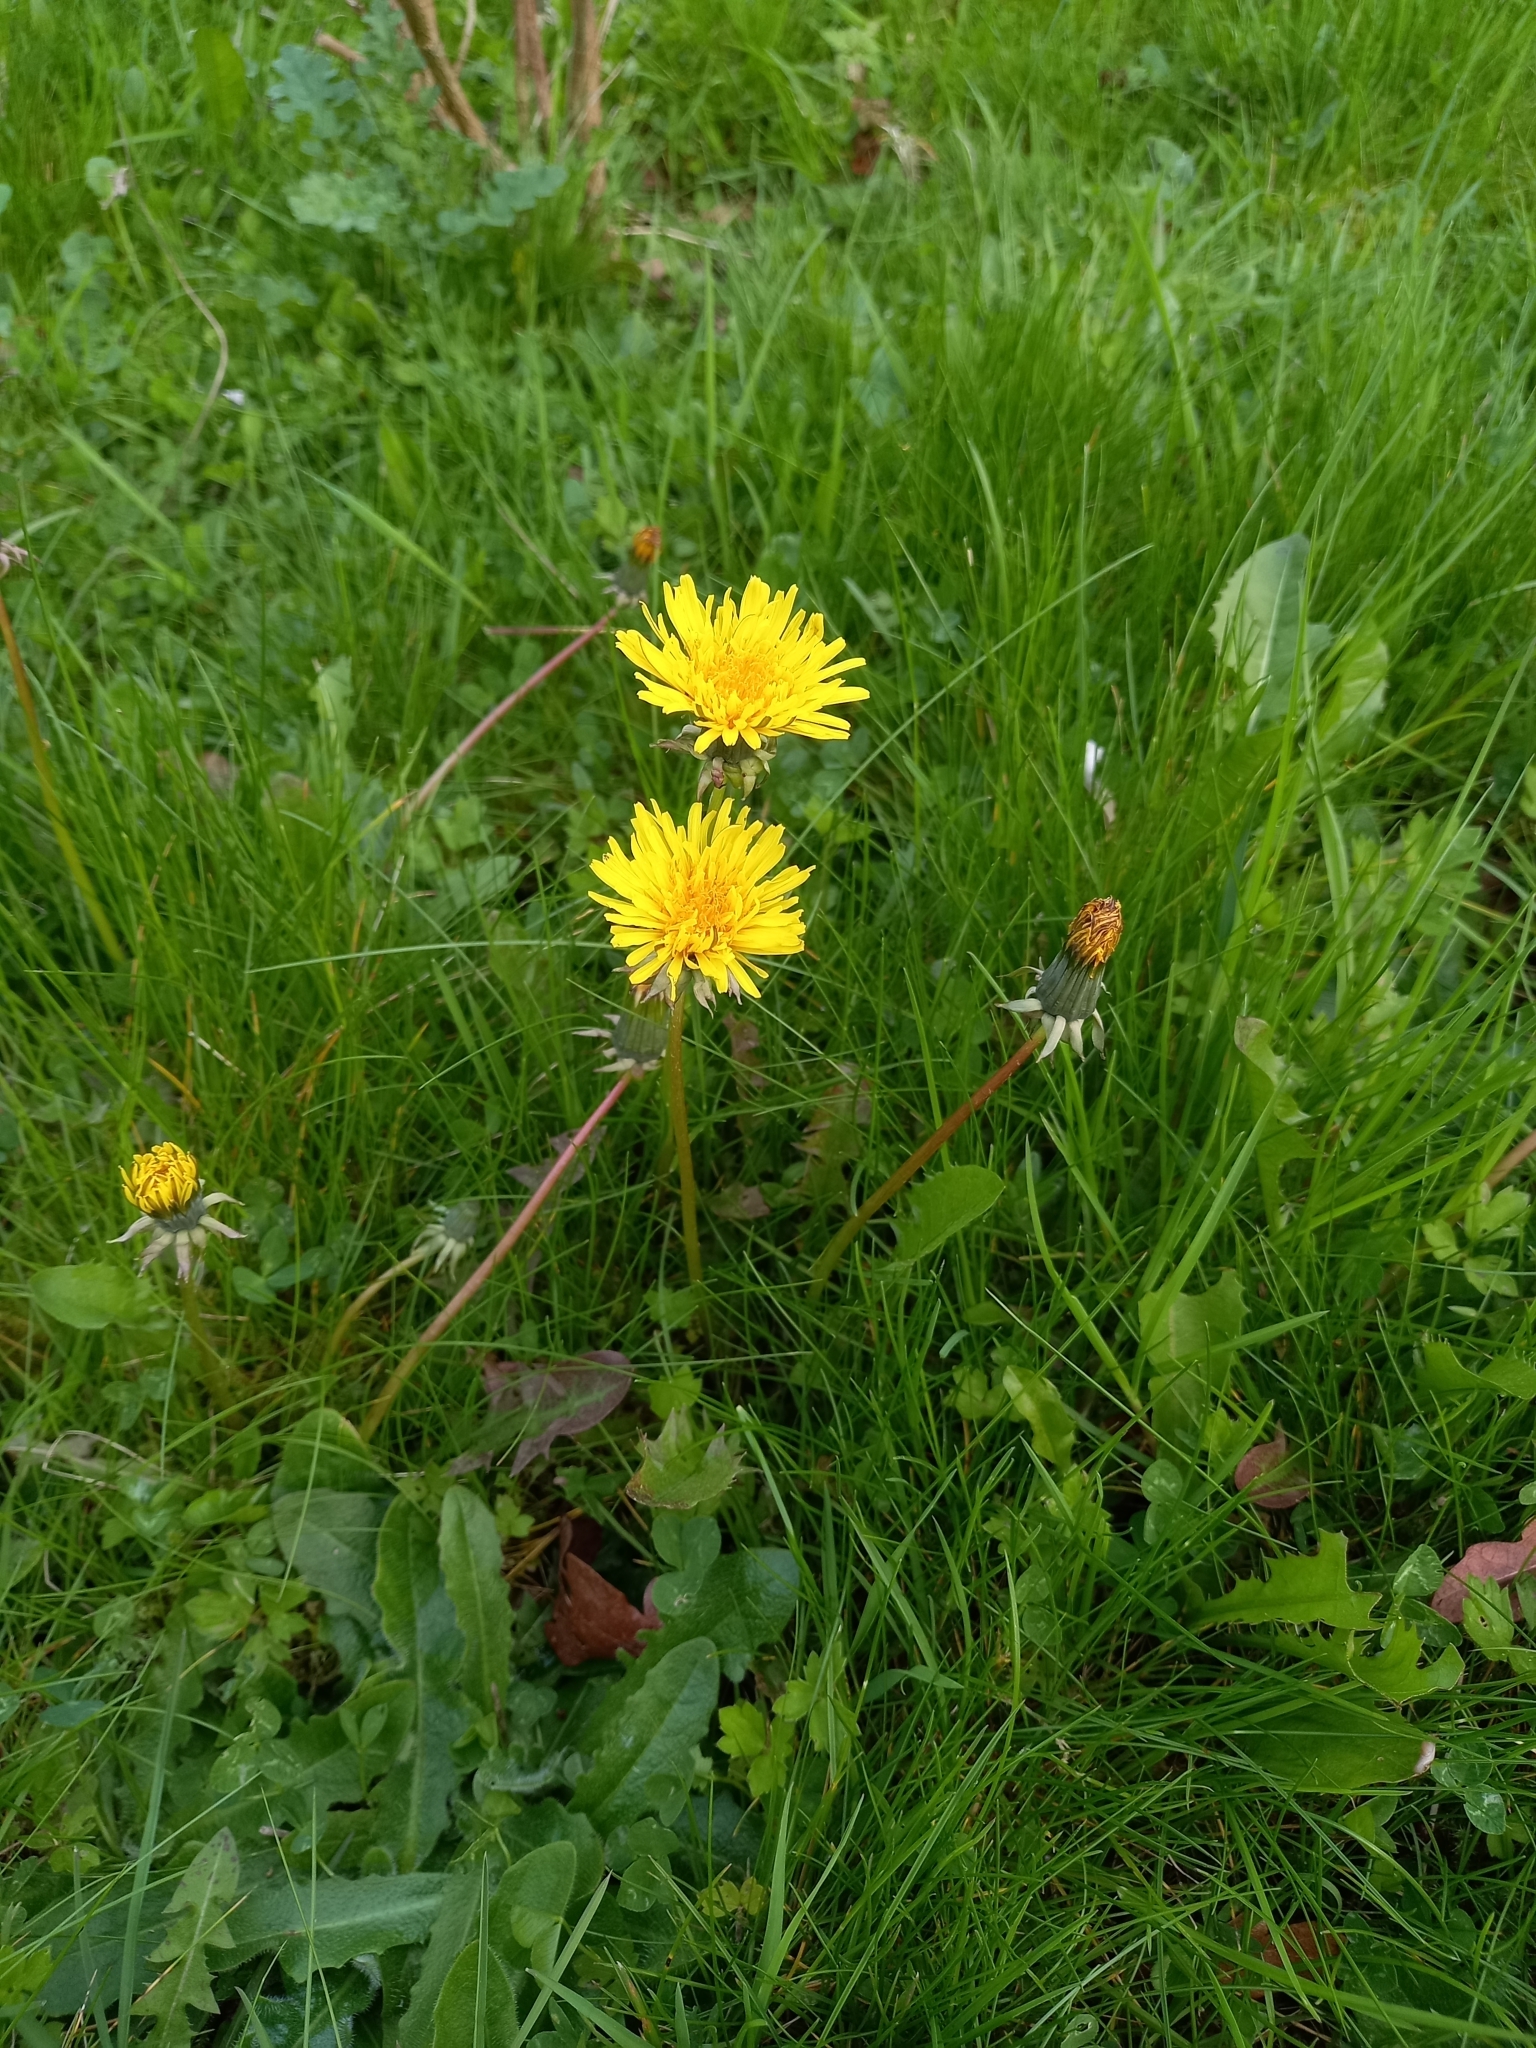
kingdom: Plantae
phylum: Tracheophyta
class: Magnoliopsida
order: Asterales
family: Asteraceae
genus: Taraxacum
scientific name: Taraxacum officinale
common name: Common dandelion
